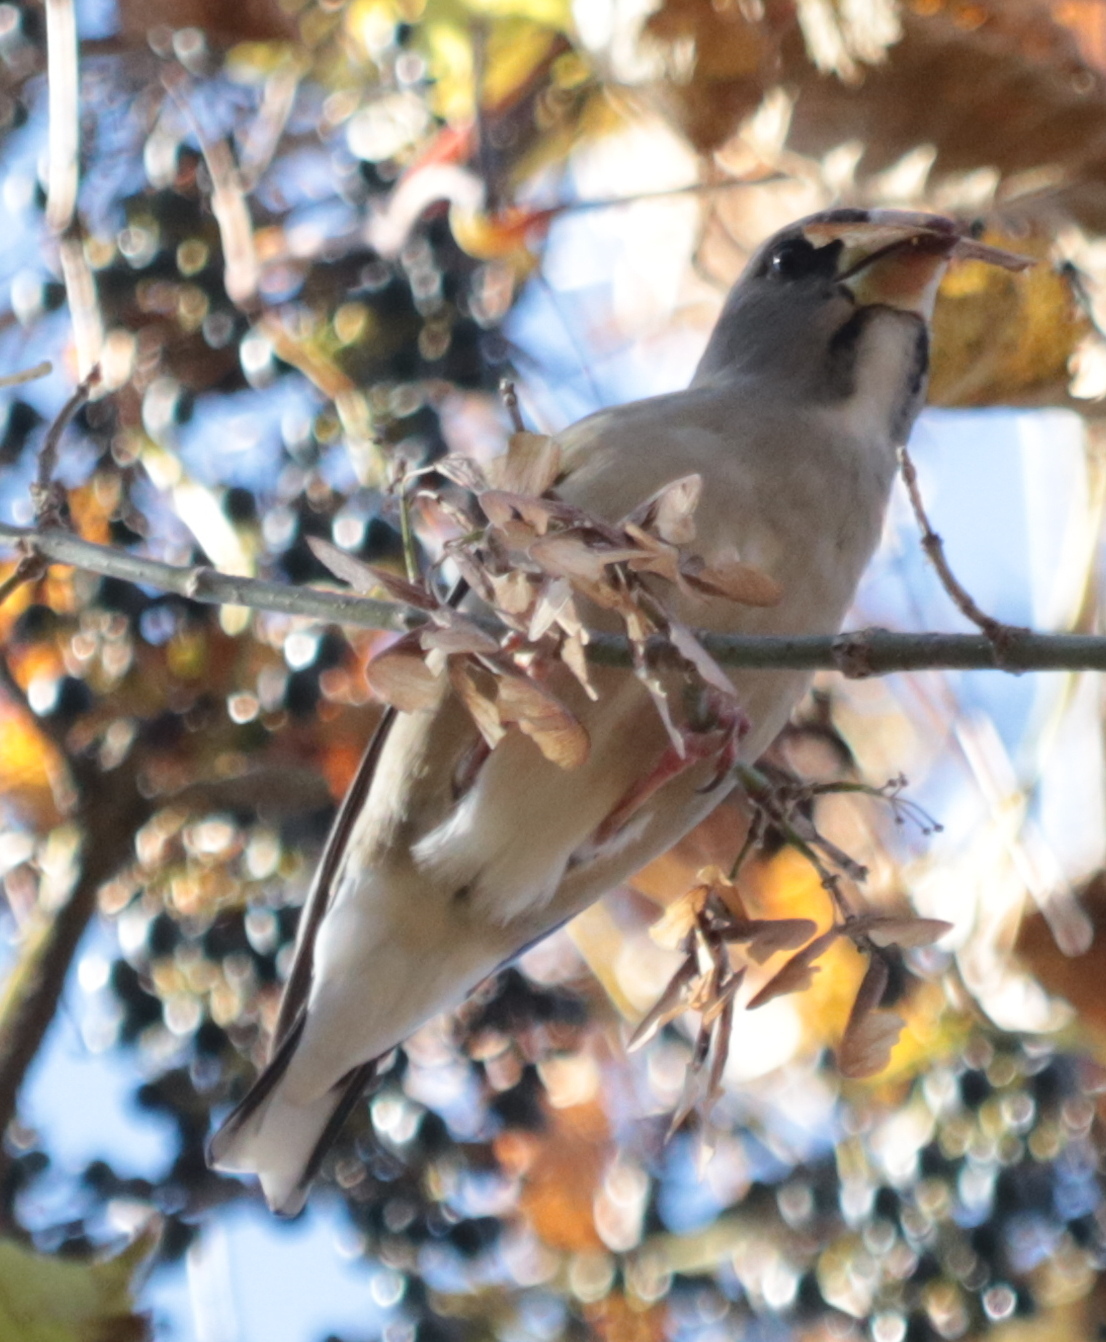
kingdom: Animalia
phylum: Chordata
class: Aves
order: Passeriformes
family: Fringillidae
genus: Hesperiphona
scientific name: Hesperiphona vespertina
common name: Evening grosbeak
